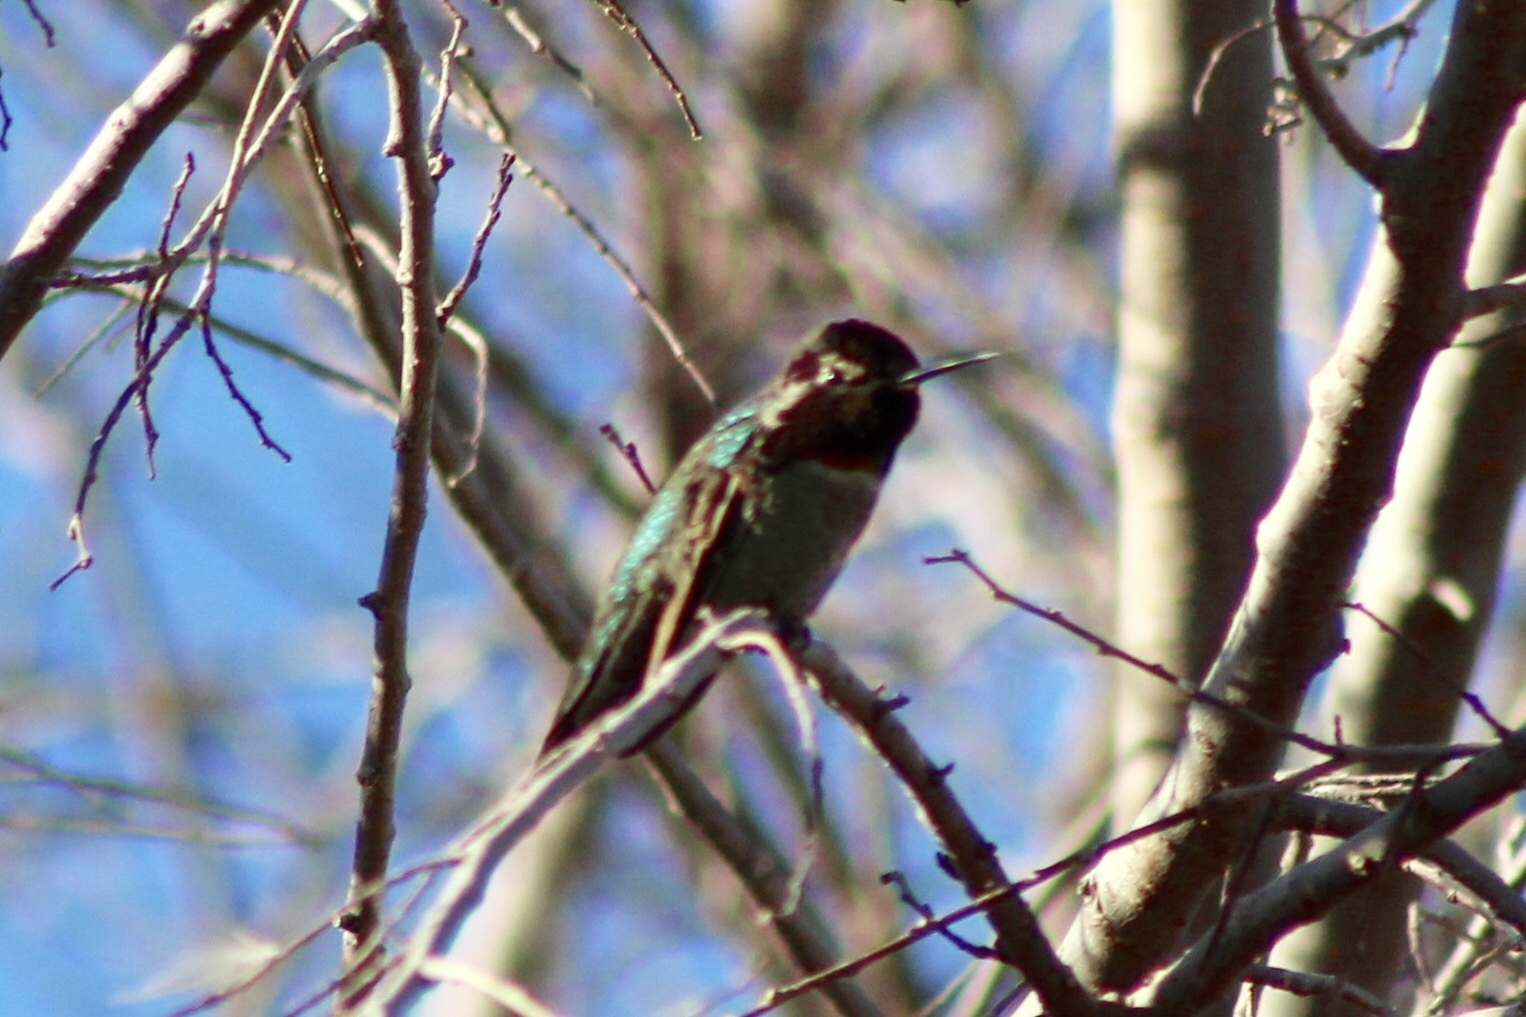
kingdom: Animalia
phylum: Chordata
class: Aves
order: Apodiformes
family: Trochilidae
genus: Calypte
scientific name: Calypte anna
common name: Anna's hummingbird
